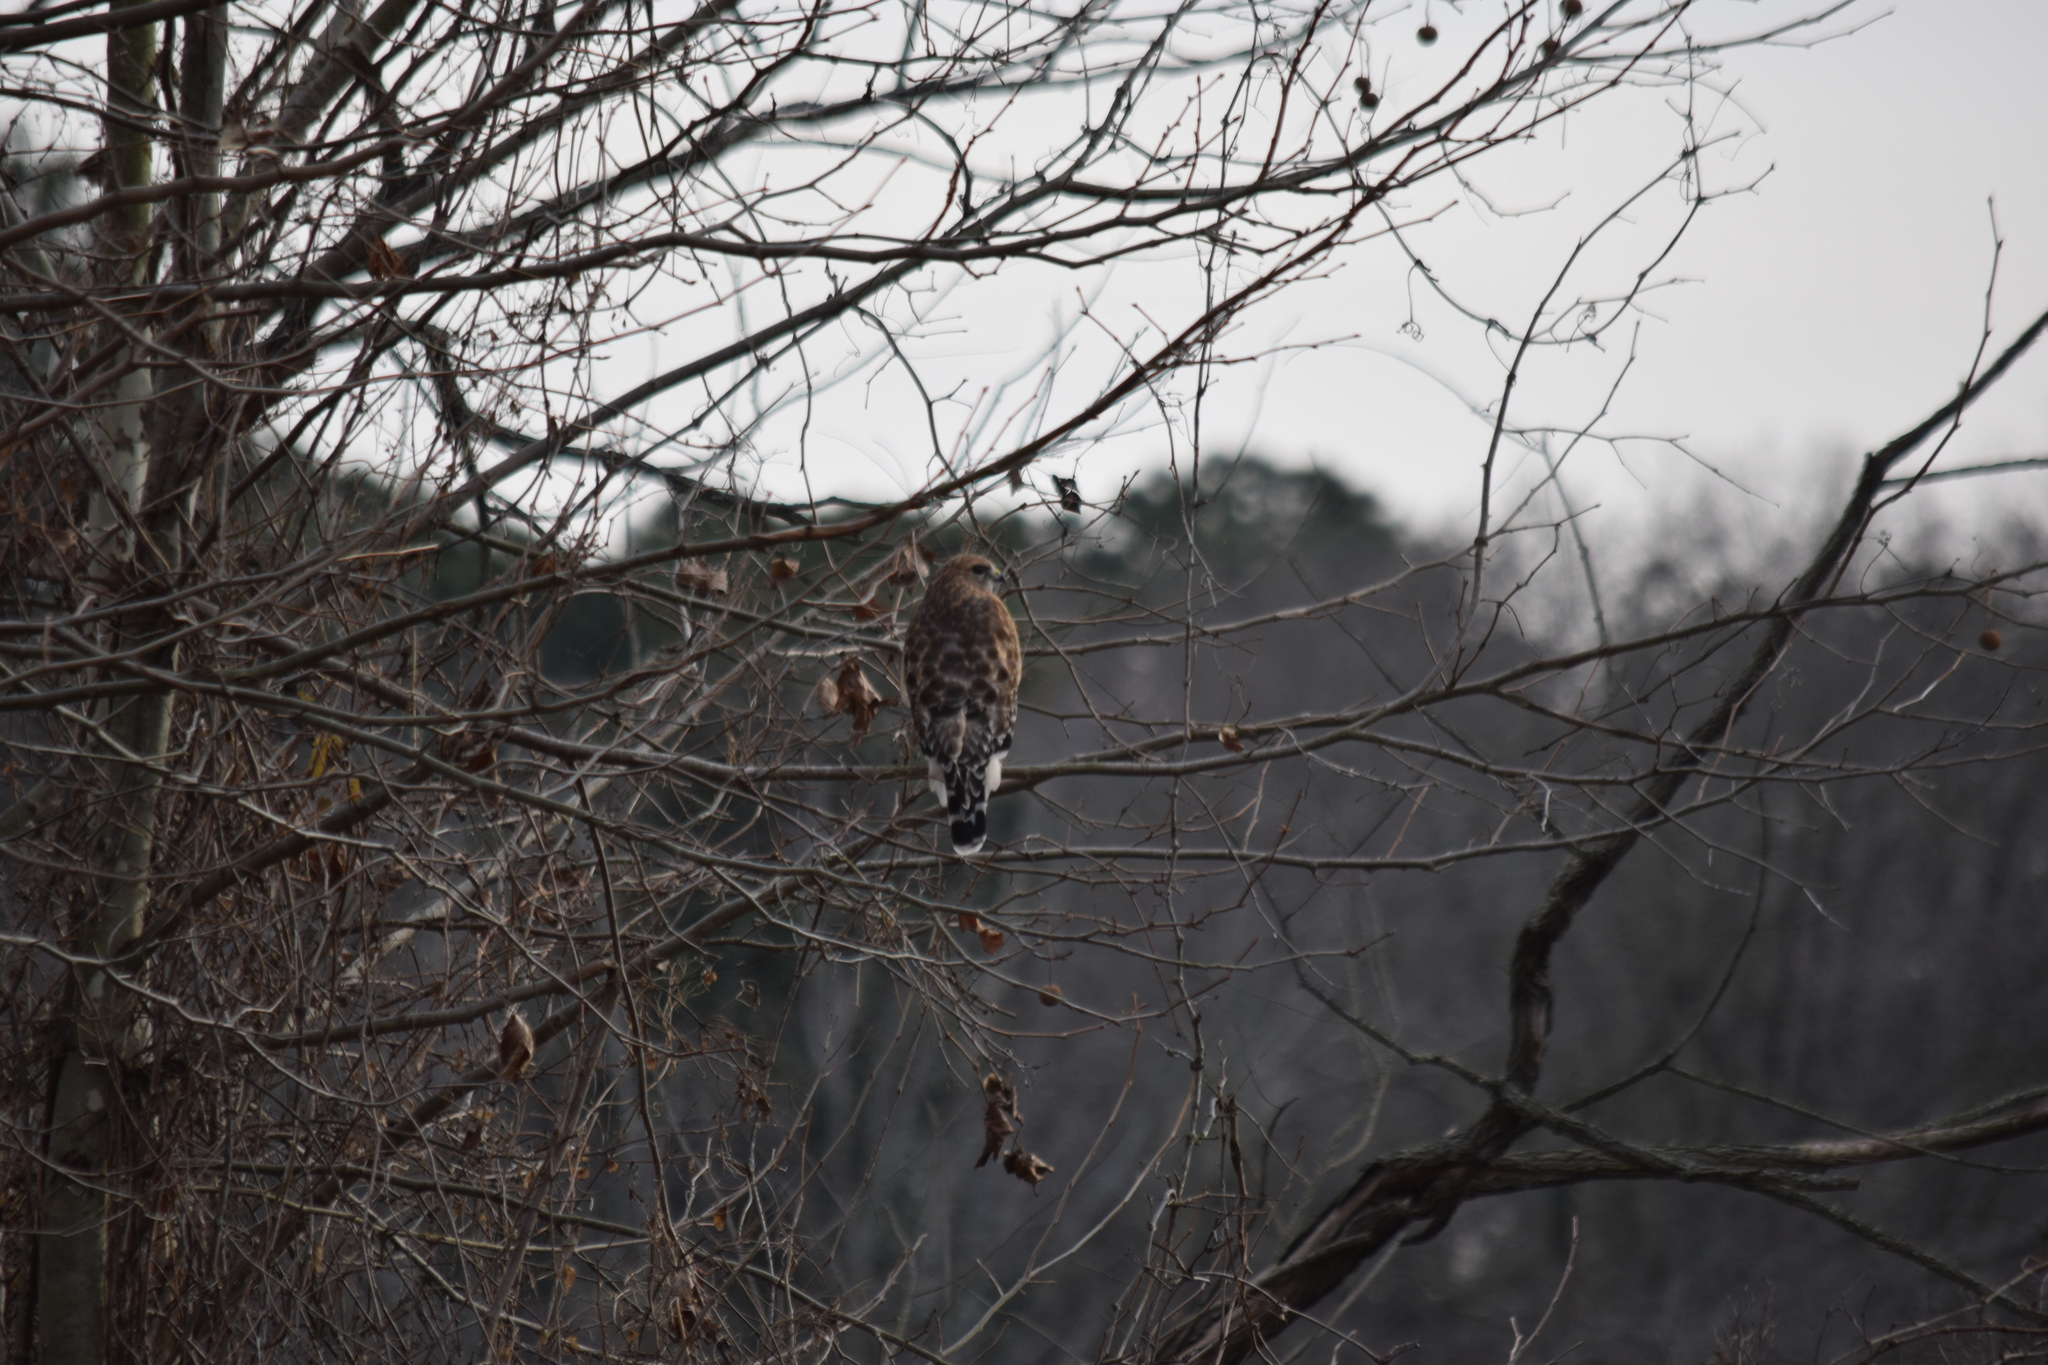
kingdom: Animalia
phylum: Chordata
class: Aves
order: Accipitriformes
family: Accipitridae
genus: Buteo
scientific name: Buteo lineatus
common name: Red-shouldered hawk
